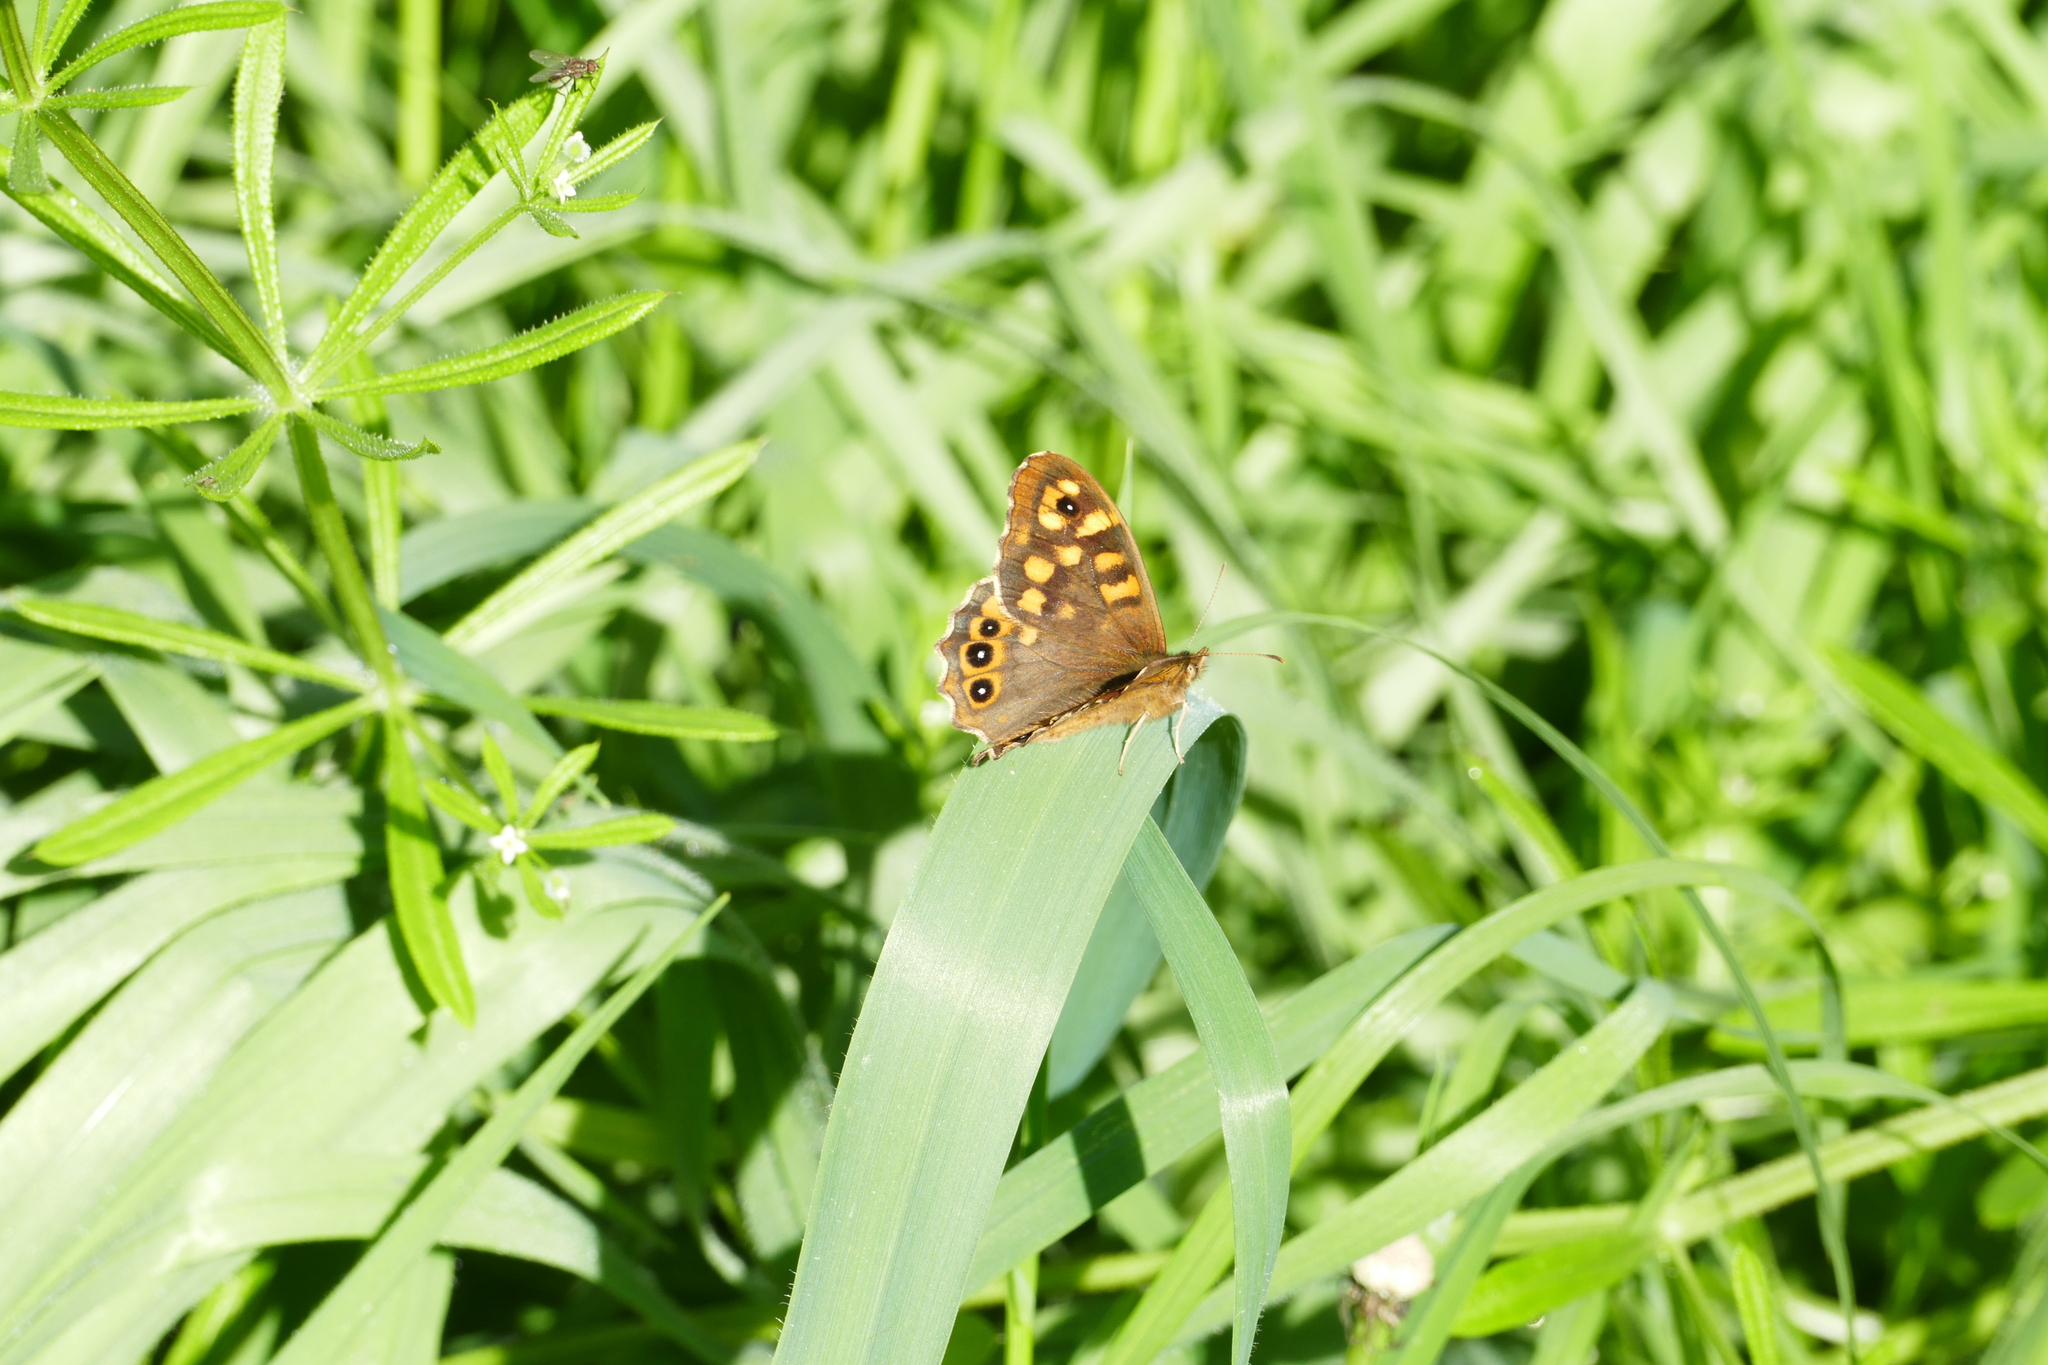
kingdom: Animalia
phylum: Arthropoda
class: Insecta
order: Lepidoptera
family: Nymphalidae
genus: Pararge
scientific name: Pararge aegeria
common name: Speckled wood
